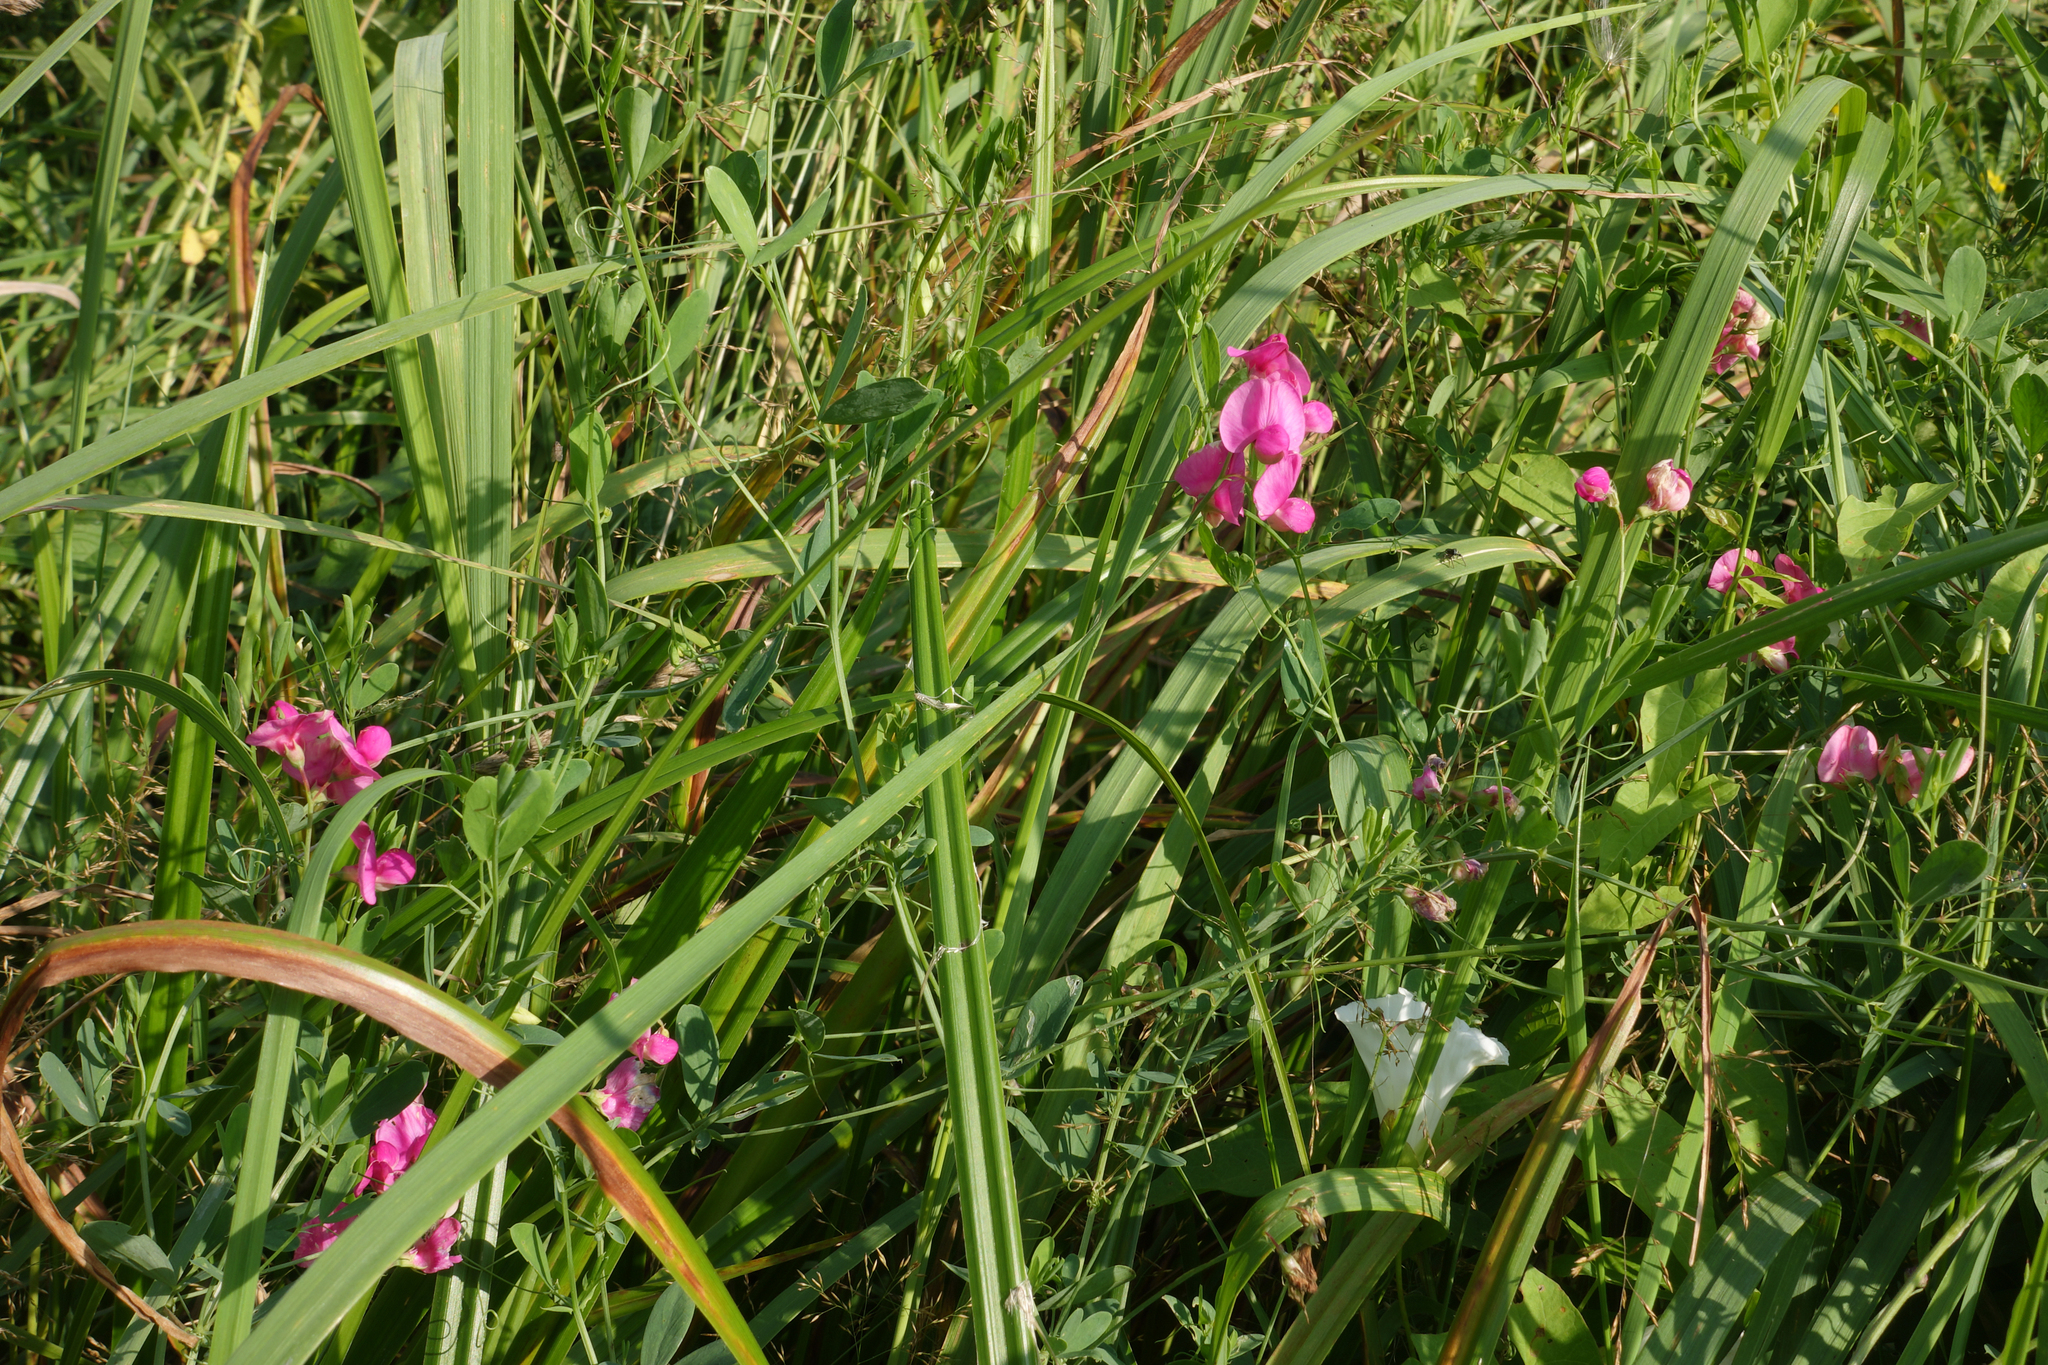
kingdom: Plantae
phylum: Tracheophyta
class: Magnoliopsida
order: Fabales
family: Fabaceae
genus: Lathyrus
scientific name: Lathyrus tuberosus
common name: Tuberous pea
